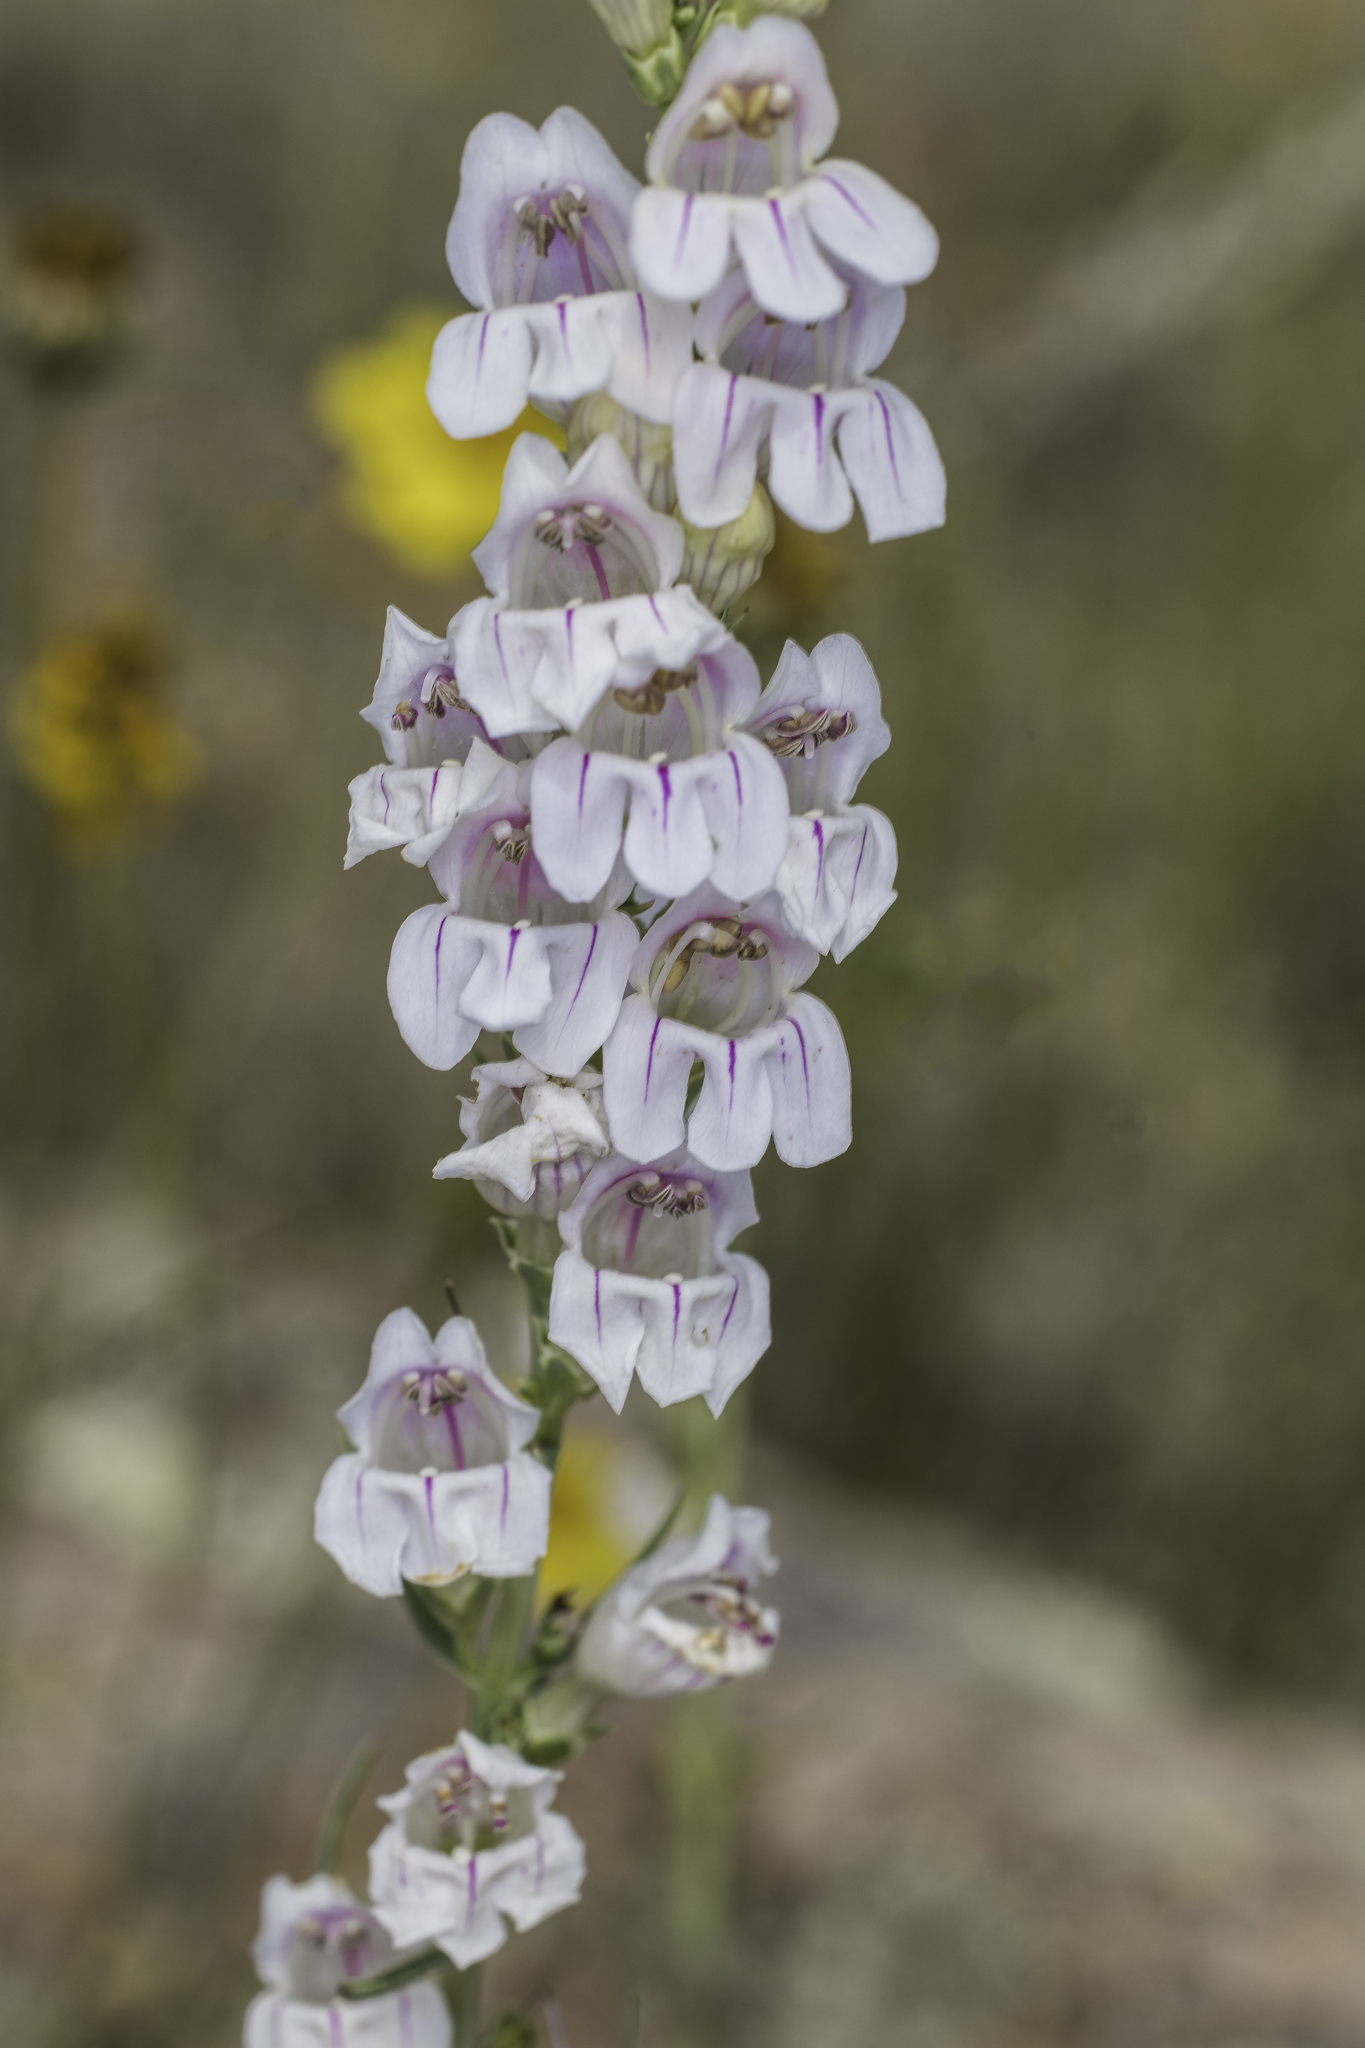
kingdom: Plantae
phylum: Tracheophyta
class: Magnoliopsida
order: Lamiales
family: Plantaginaceae
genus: Penstemon
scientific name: Penstemon virgatus
